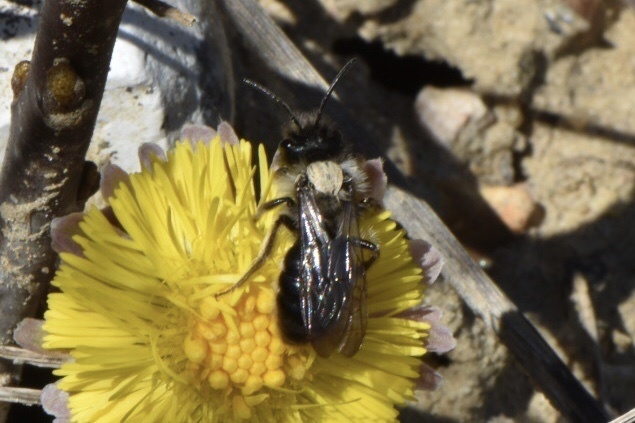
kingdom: Animalia
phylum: Arthropoda
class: Insecta
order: Hymenoptera
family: Andrenidae
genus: Andrena
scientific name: Andrena cineraria
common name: Ashy mining bee
